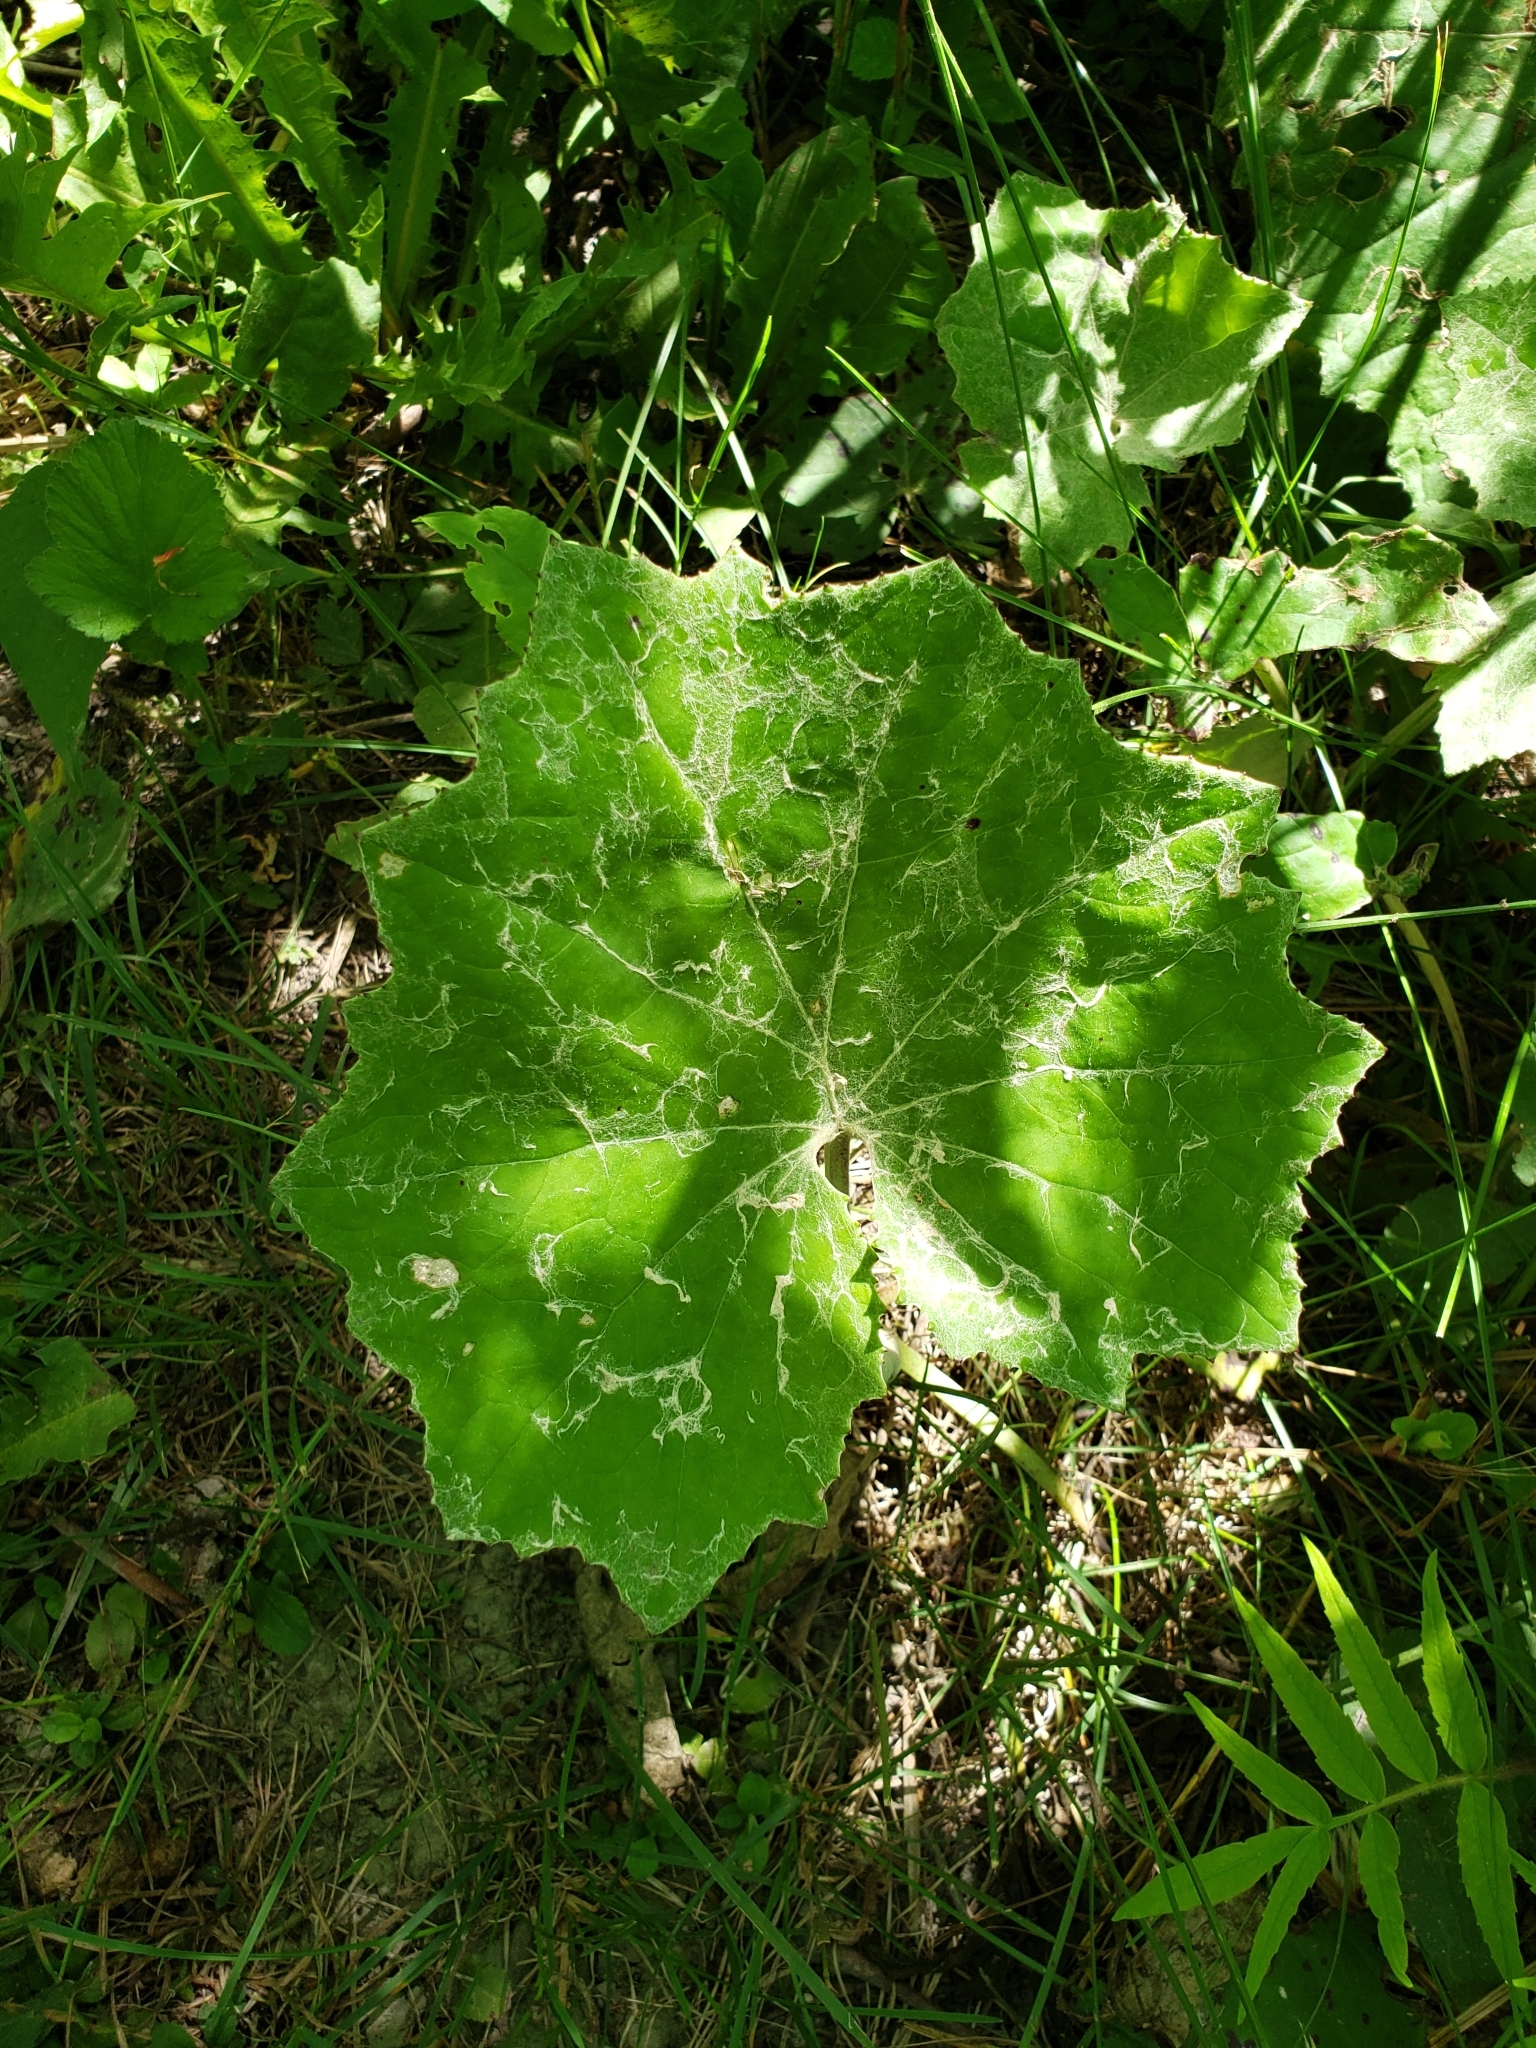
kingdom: Plantae
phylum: Tracheophyta
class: Magnoliopsida
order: Asterales
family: Asteraceae
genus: Tussilago
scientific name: Tussilago farfara
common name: Coltsfoot
